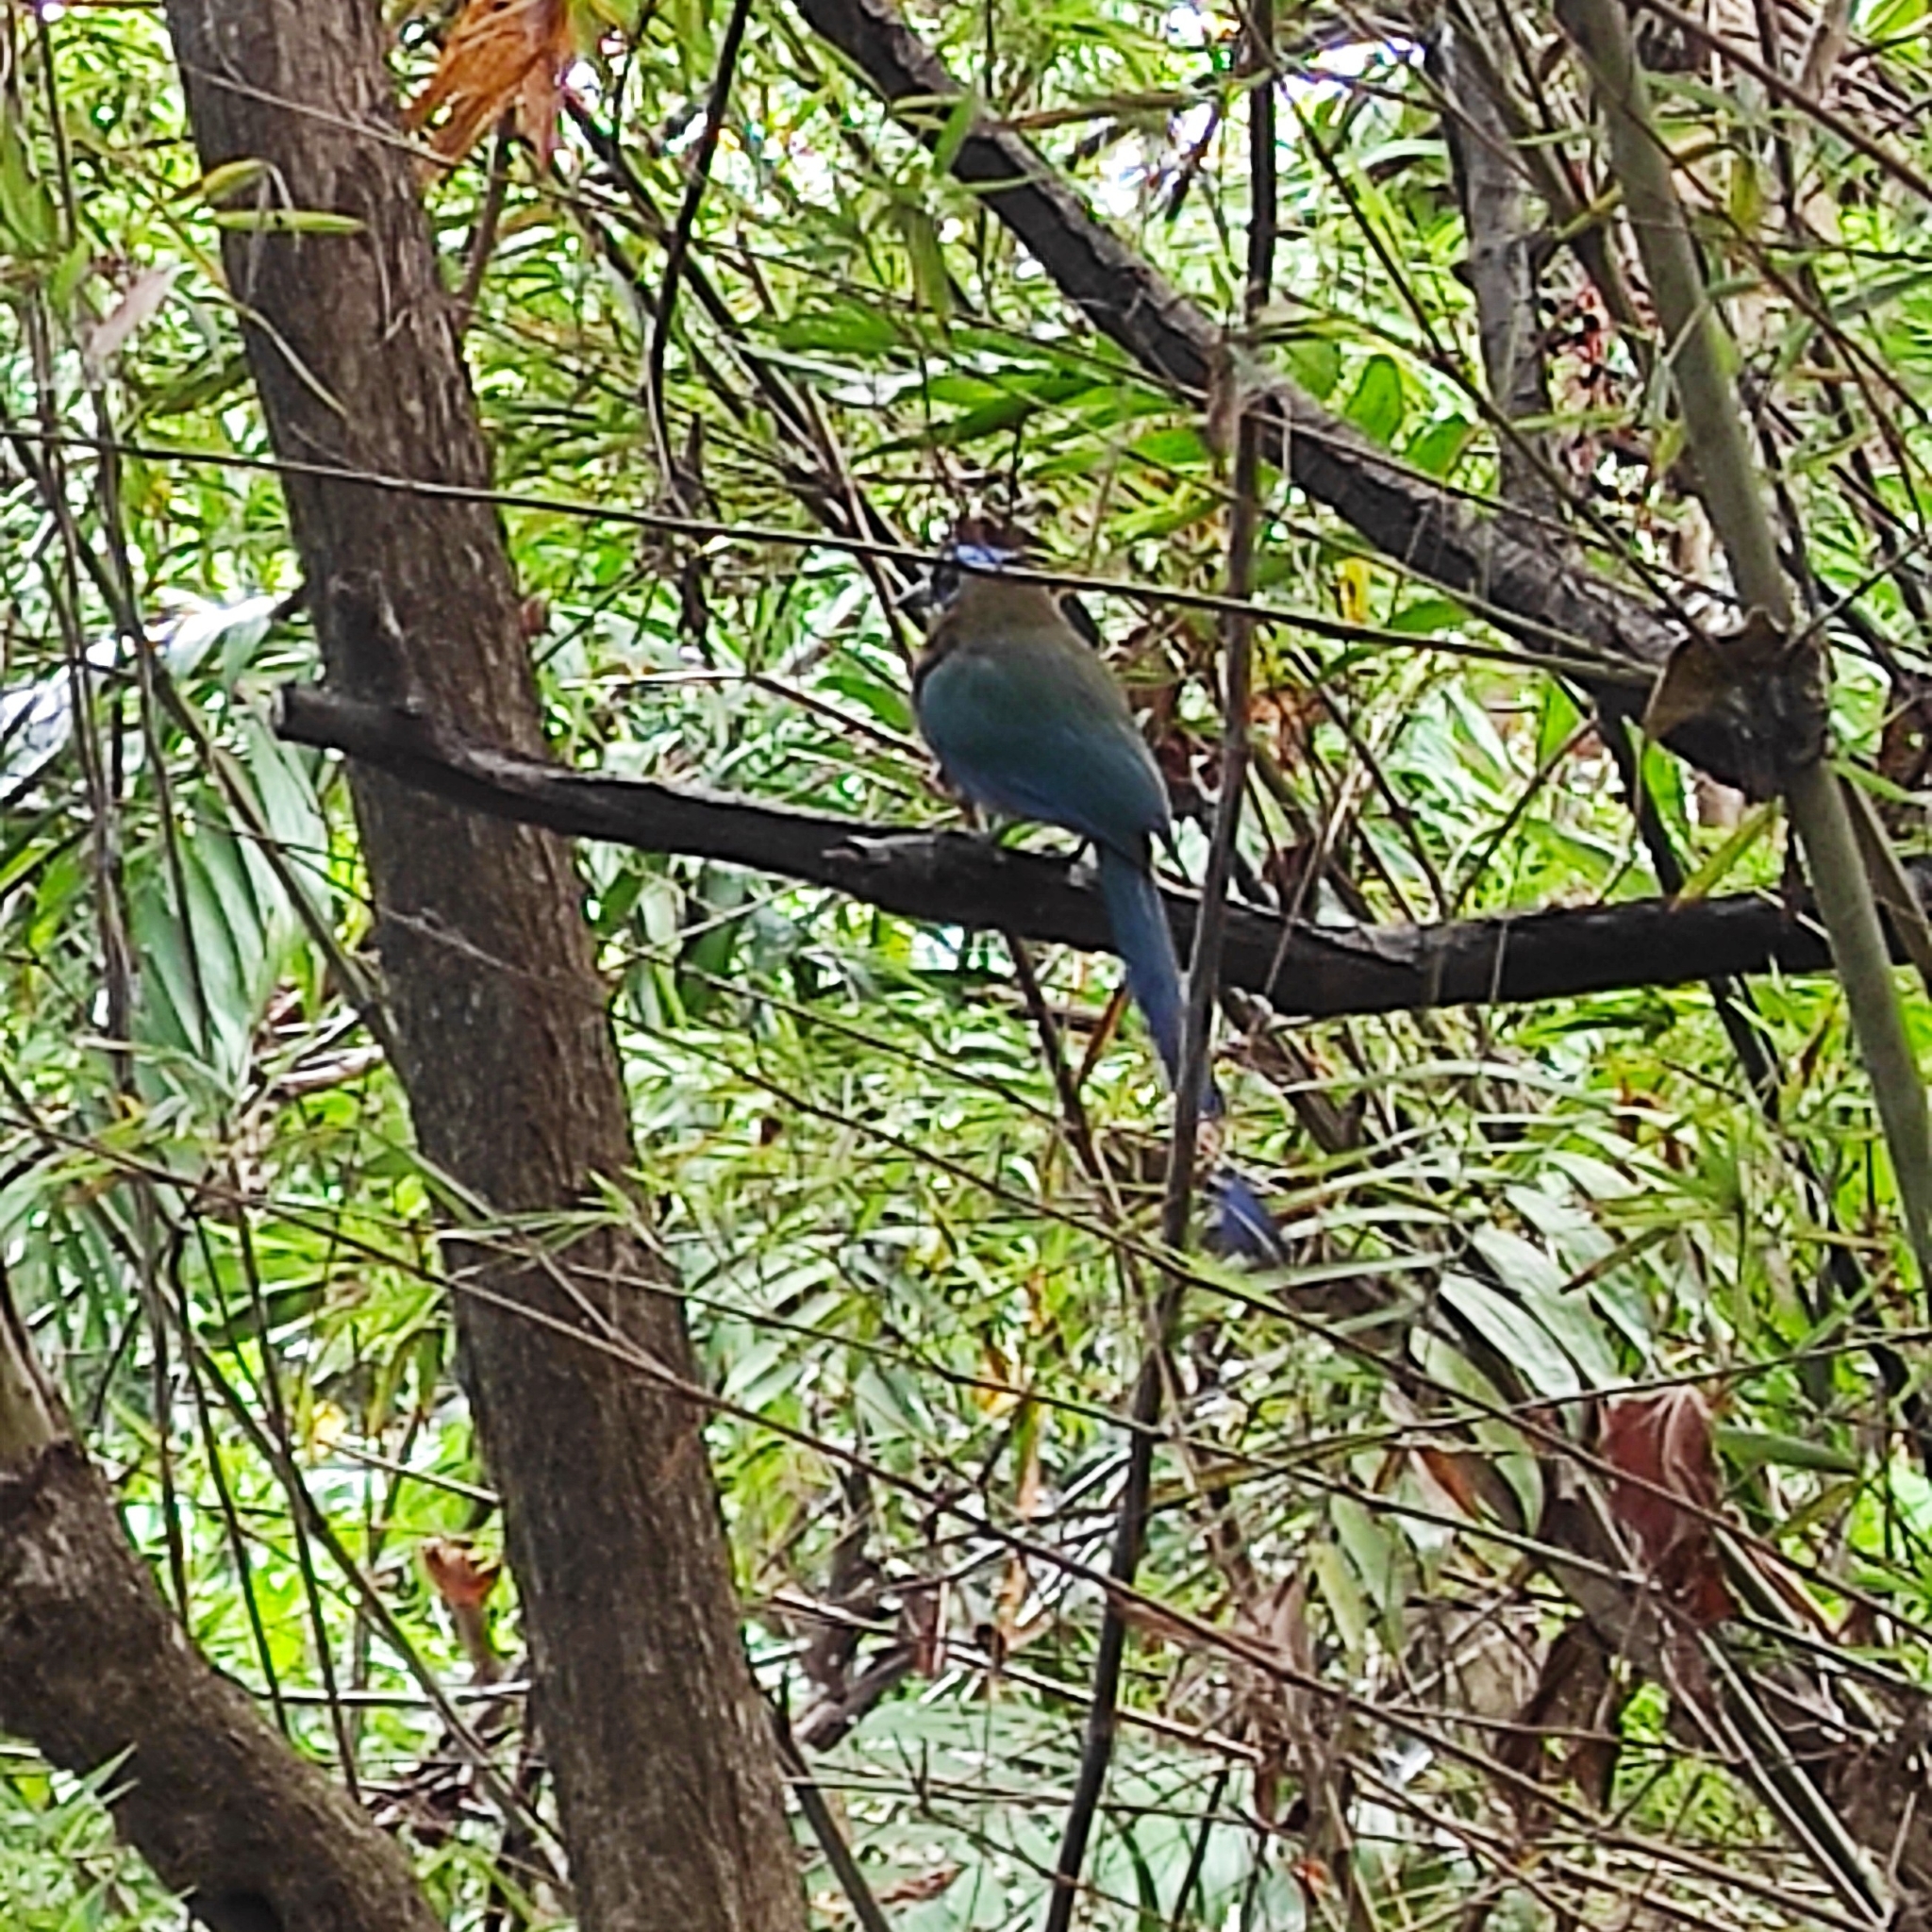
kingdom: Animalia
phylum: Chordata
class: Aves
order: Coraciiformes
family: Momotidae
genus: Momotus
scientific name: Momotus lessonii
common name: Lesson's motmot
